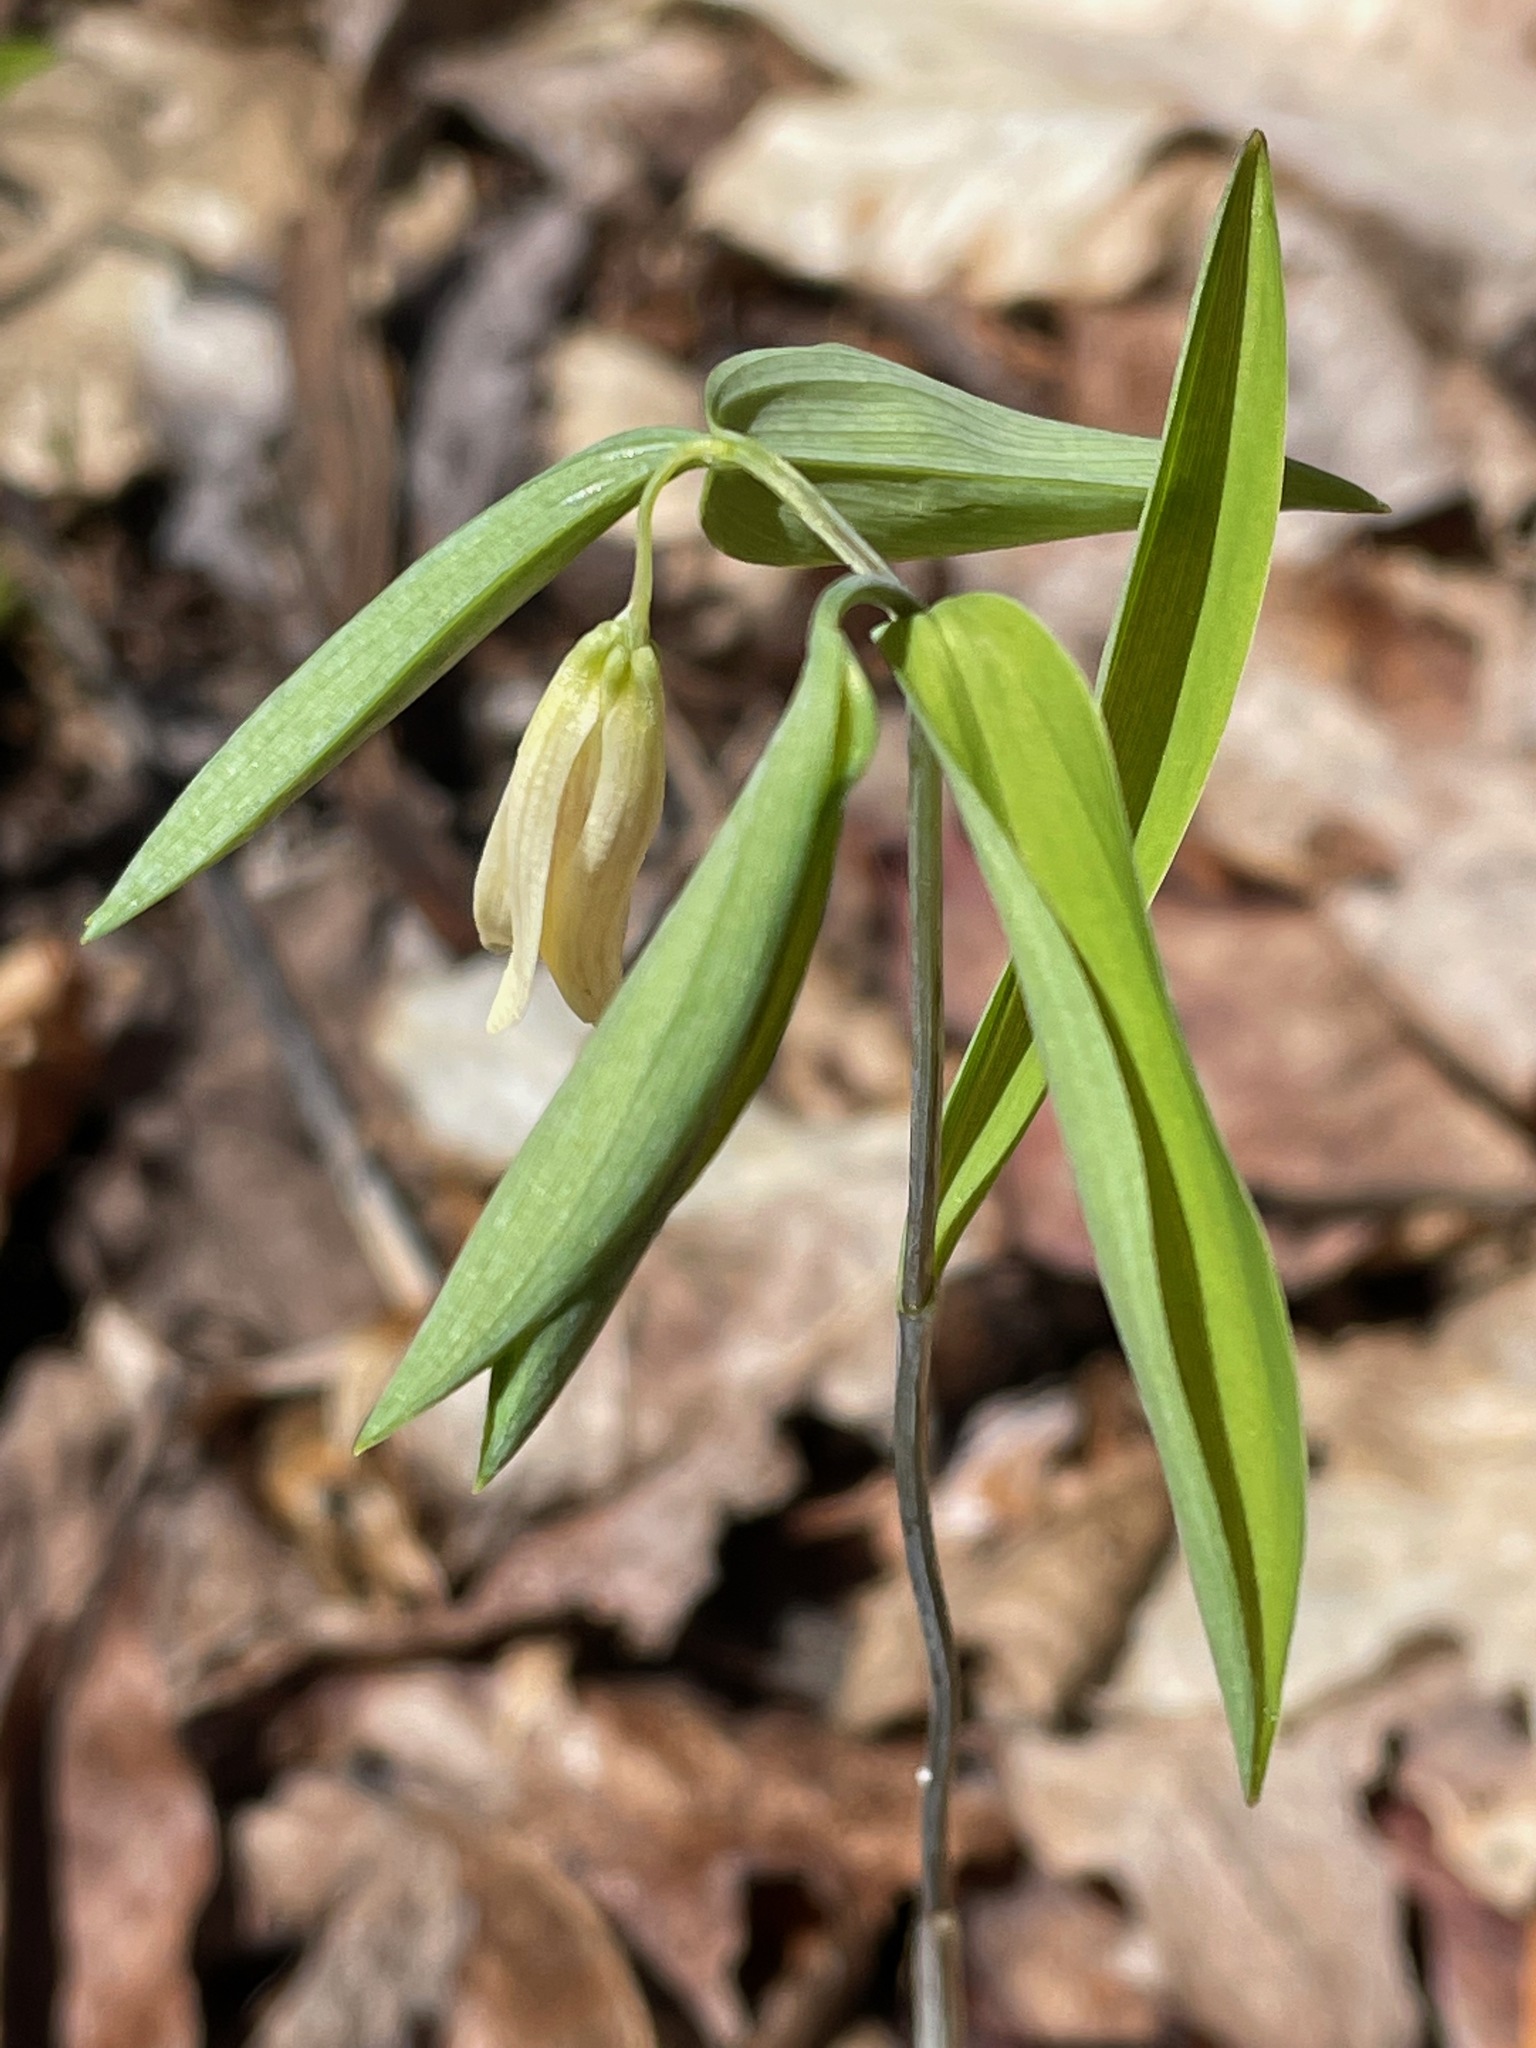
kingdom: Plantae
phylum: Tracheophyta
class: Liliopsida
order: Liliales
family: Colchicaceae
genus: Uvularia
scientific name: Uvularia sessilifolia
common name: Straw-lily
